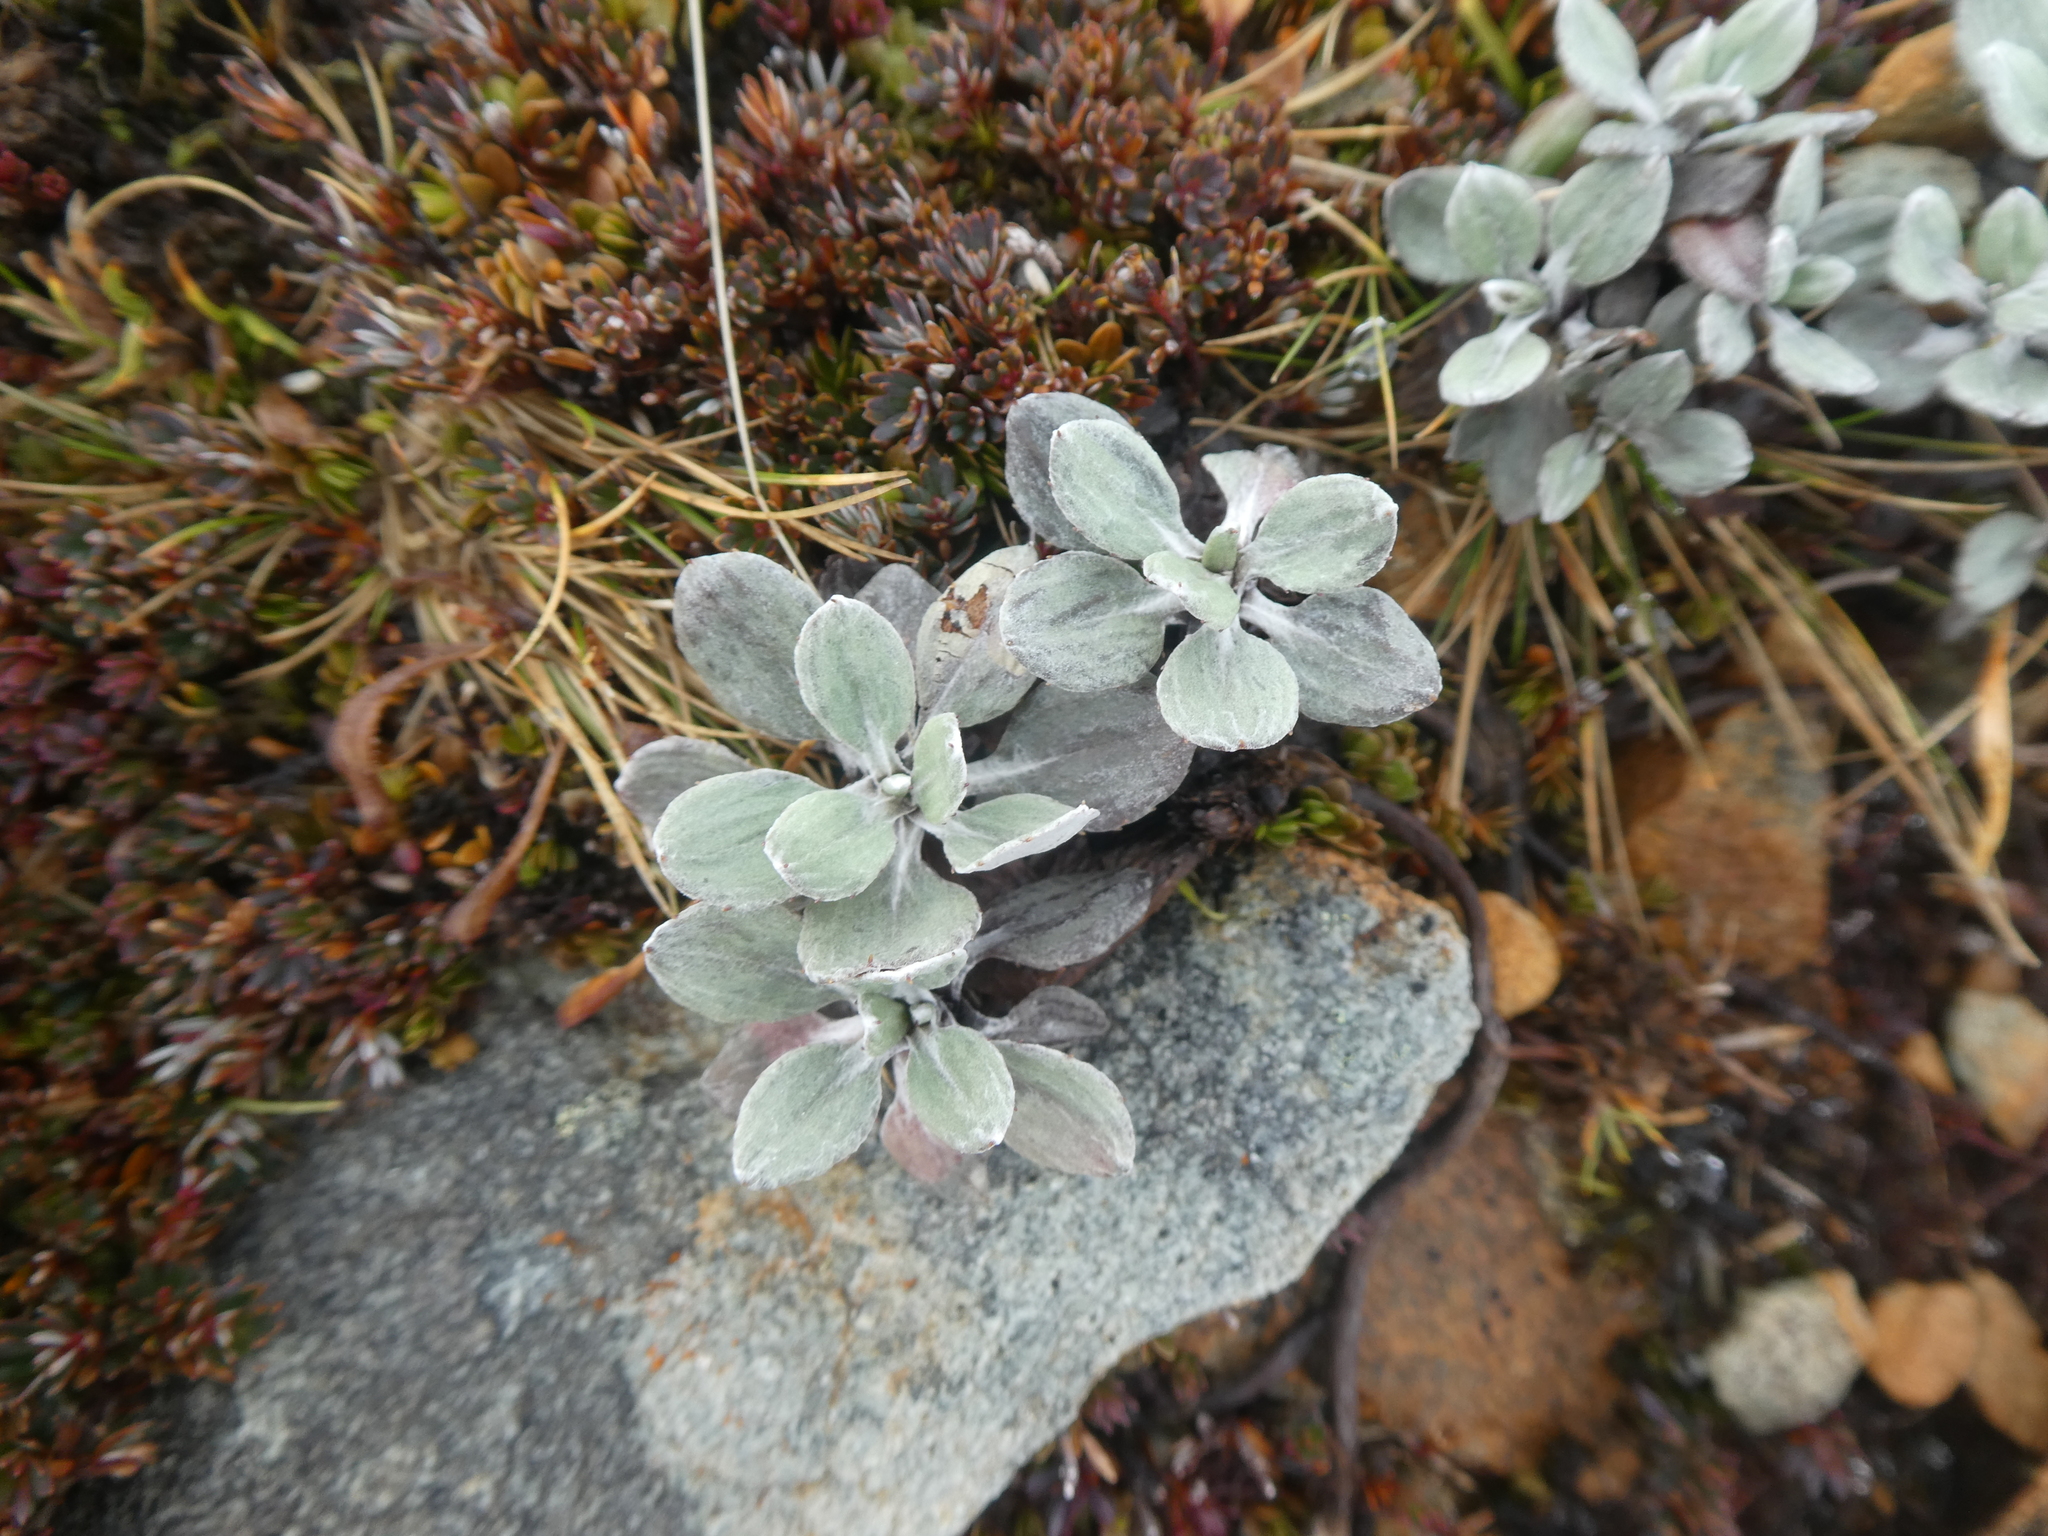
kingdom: Plantae
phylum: Tracheophyta
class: Magnoliopsida
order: Asterales
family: Asteraceae
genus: Celmisia
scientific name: Celmisia discolor
